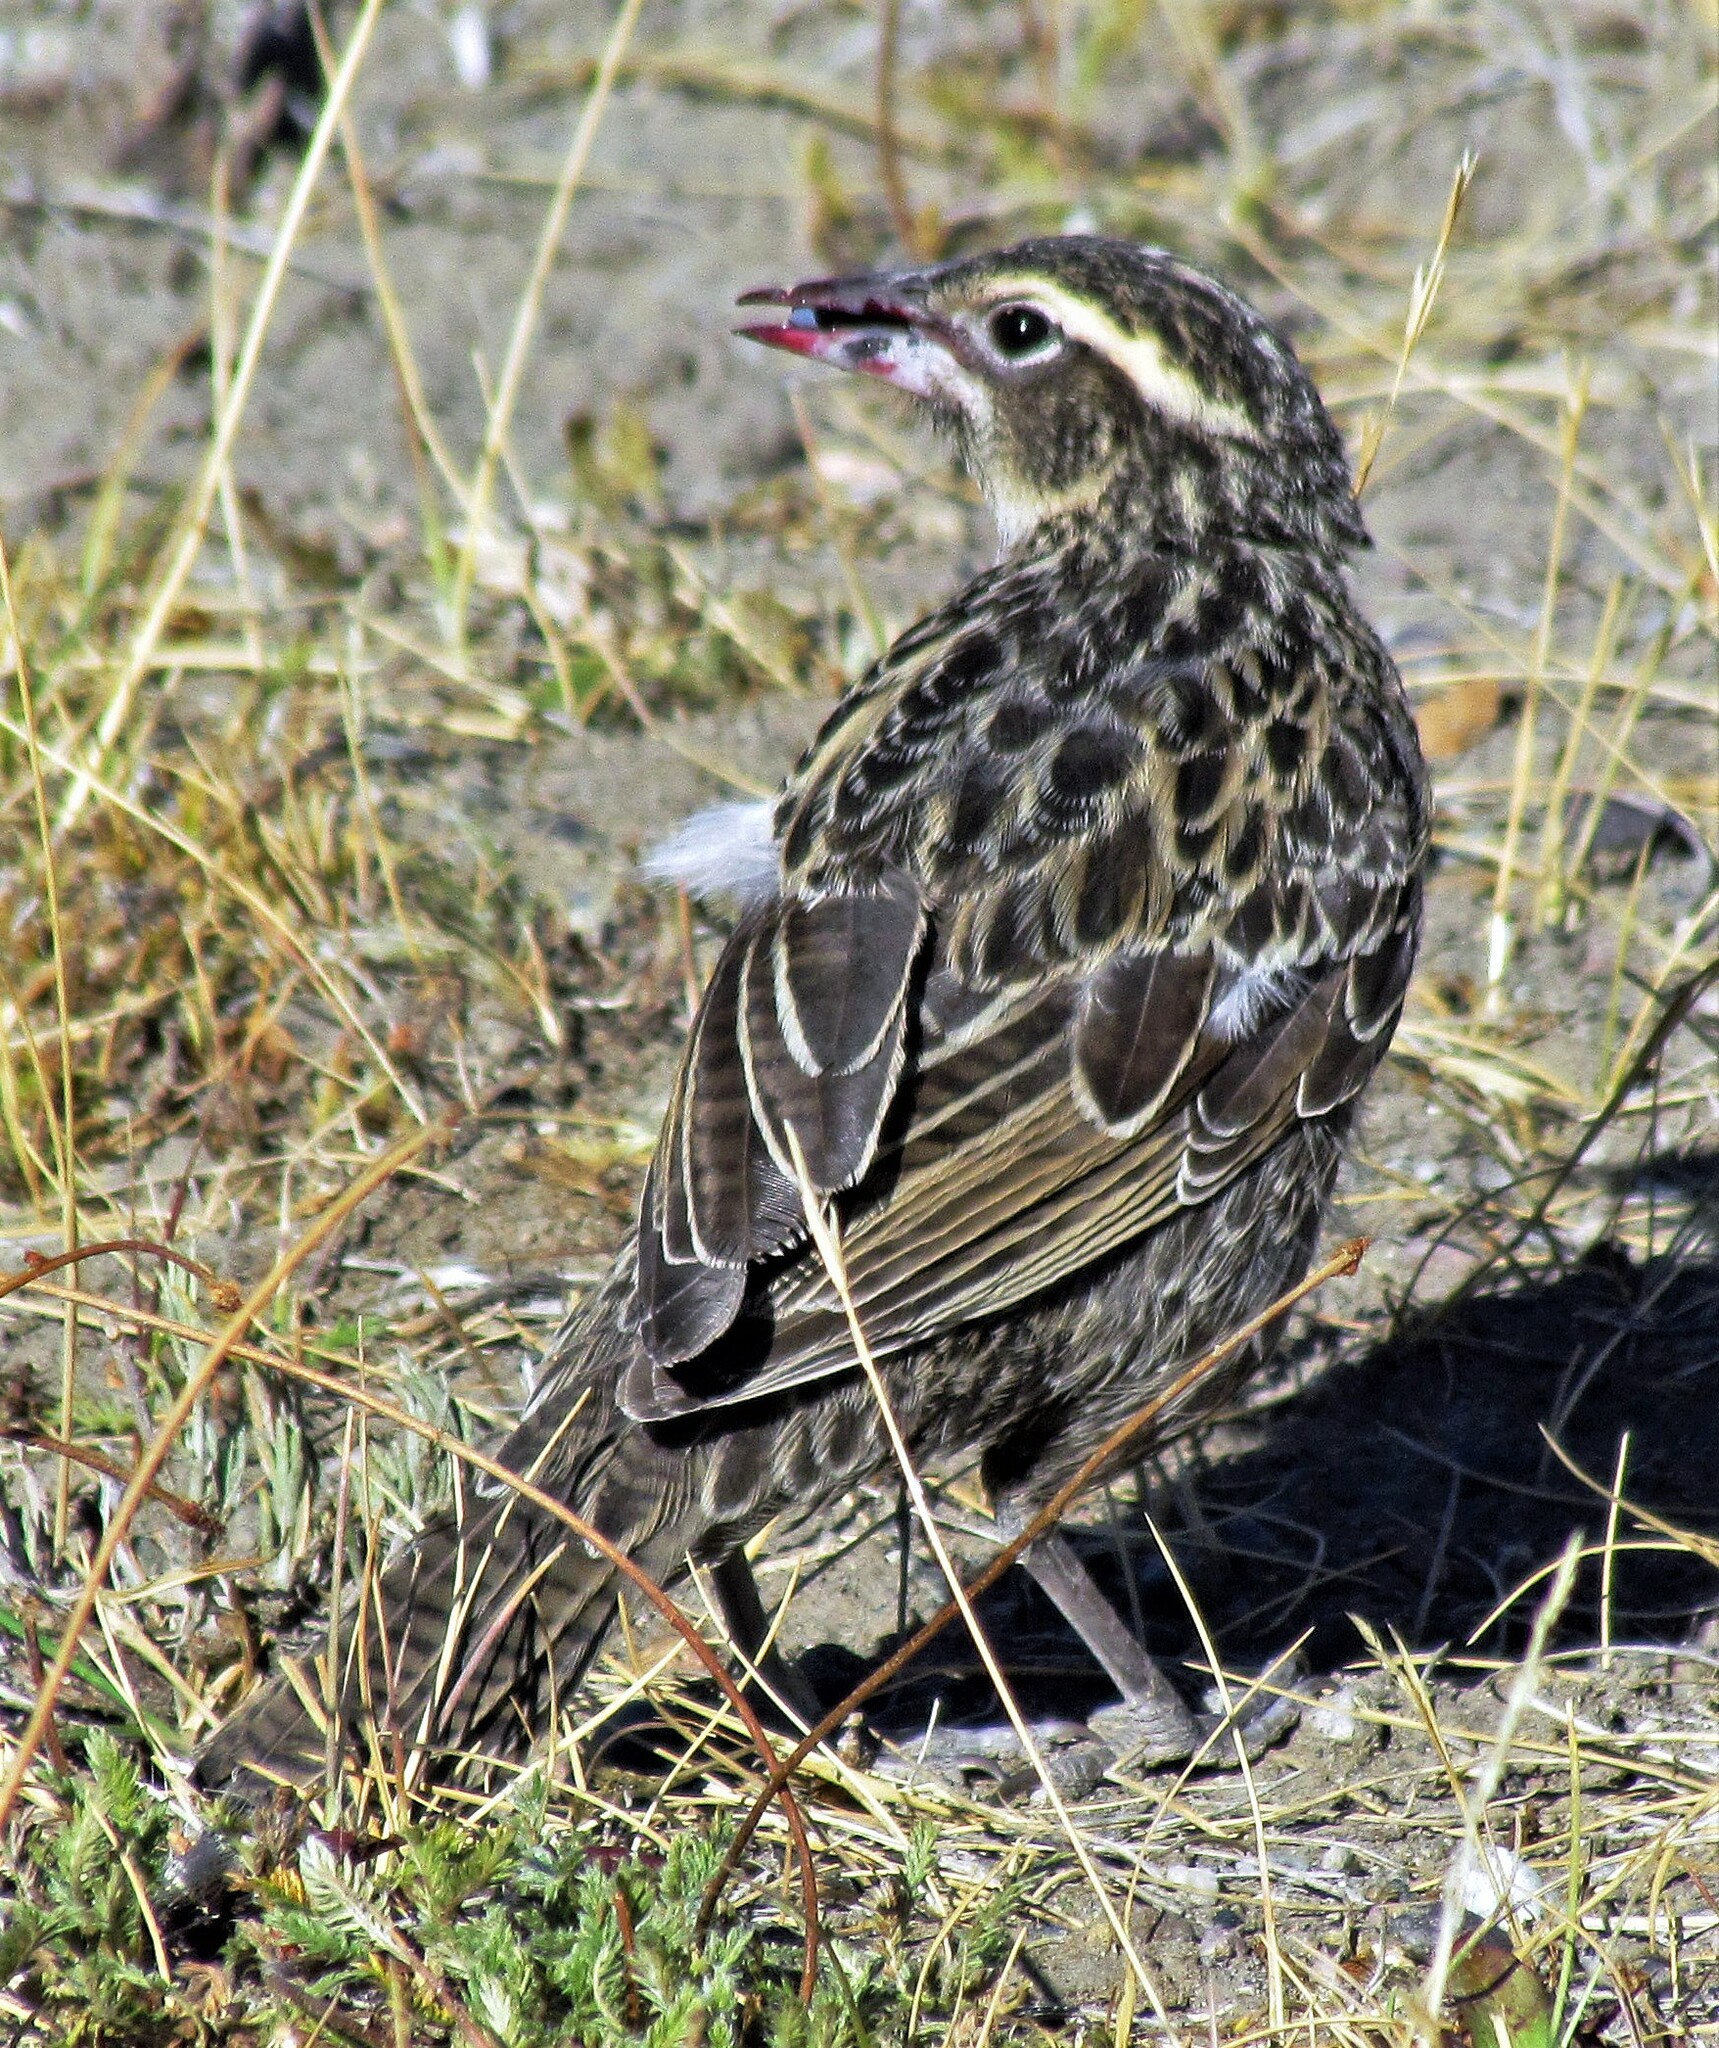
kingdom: Animalia
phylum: Chordata
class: Aves
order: Passeriformes
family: Icteridae
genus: Sturnella
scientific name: Sturnella loyca
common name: Long-tailed meadowlark
